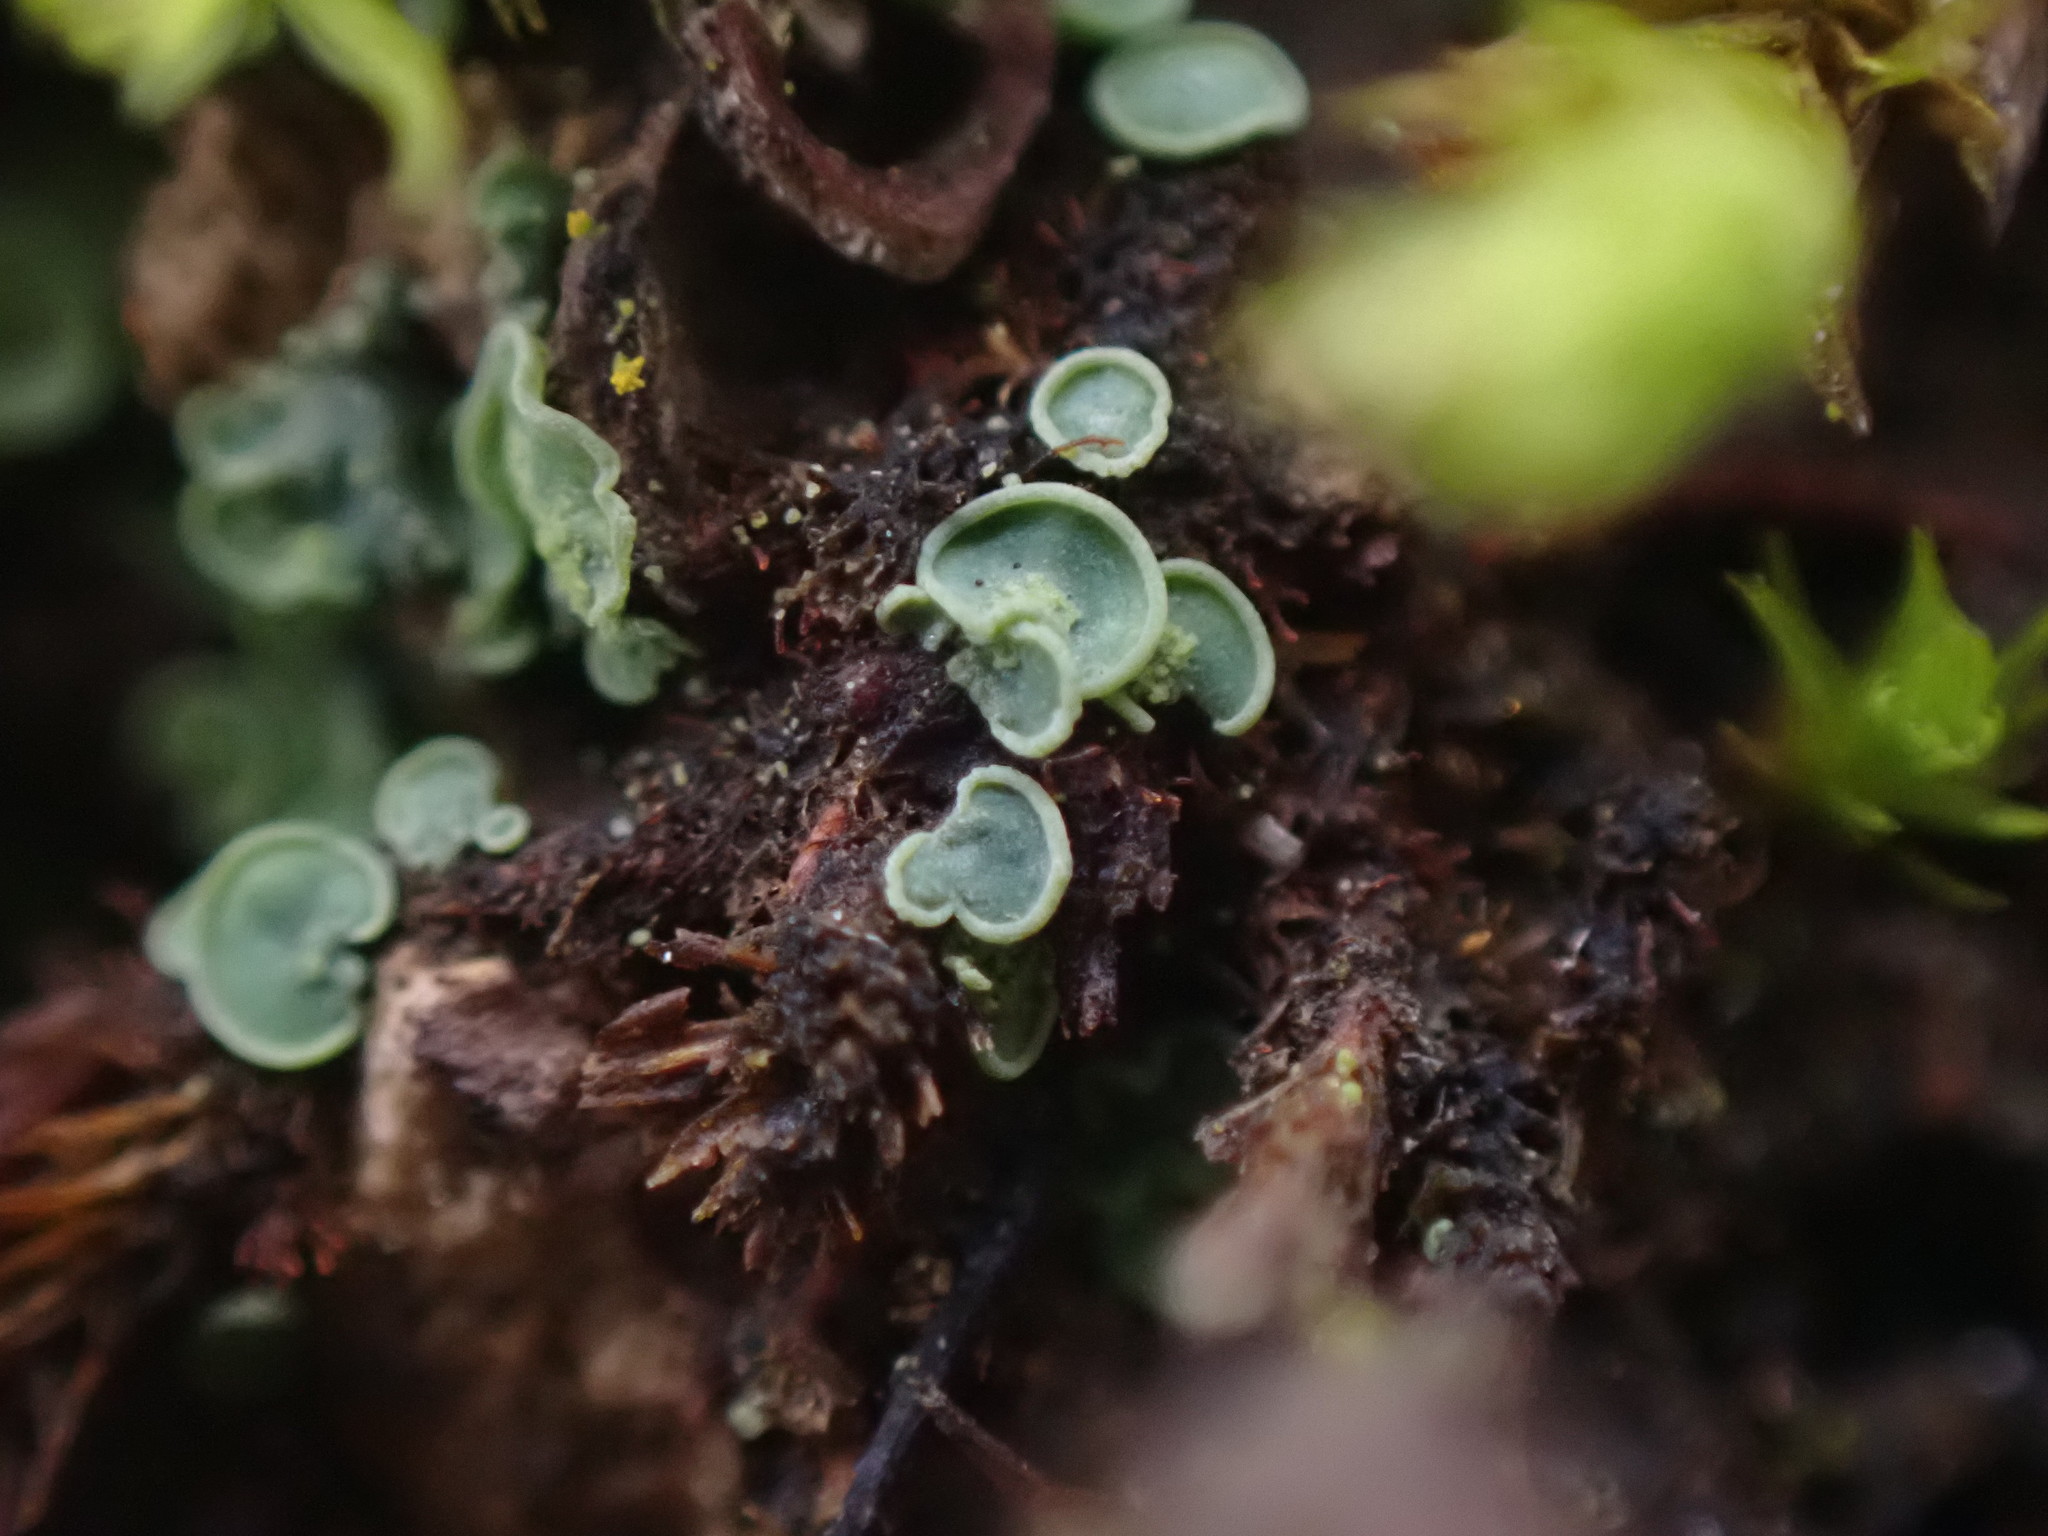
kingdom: Fungi
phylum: Ascomycota
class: Eurotiomycetes
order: Verrucariales
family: Verrucariaceae
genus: Normandina
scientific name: Normandina pulchella
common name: Elf ears lichen
